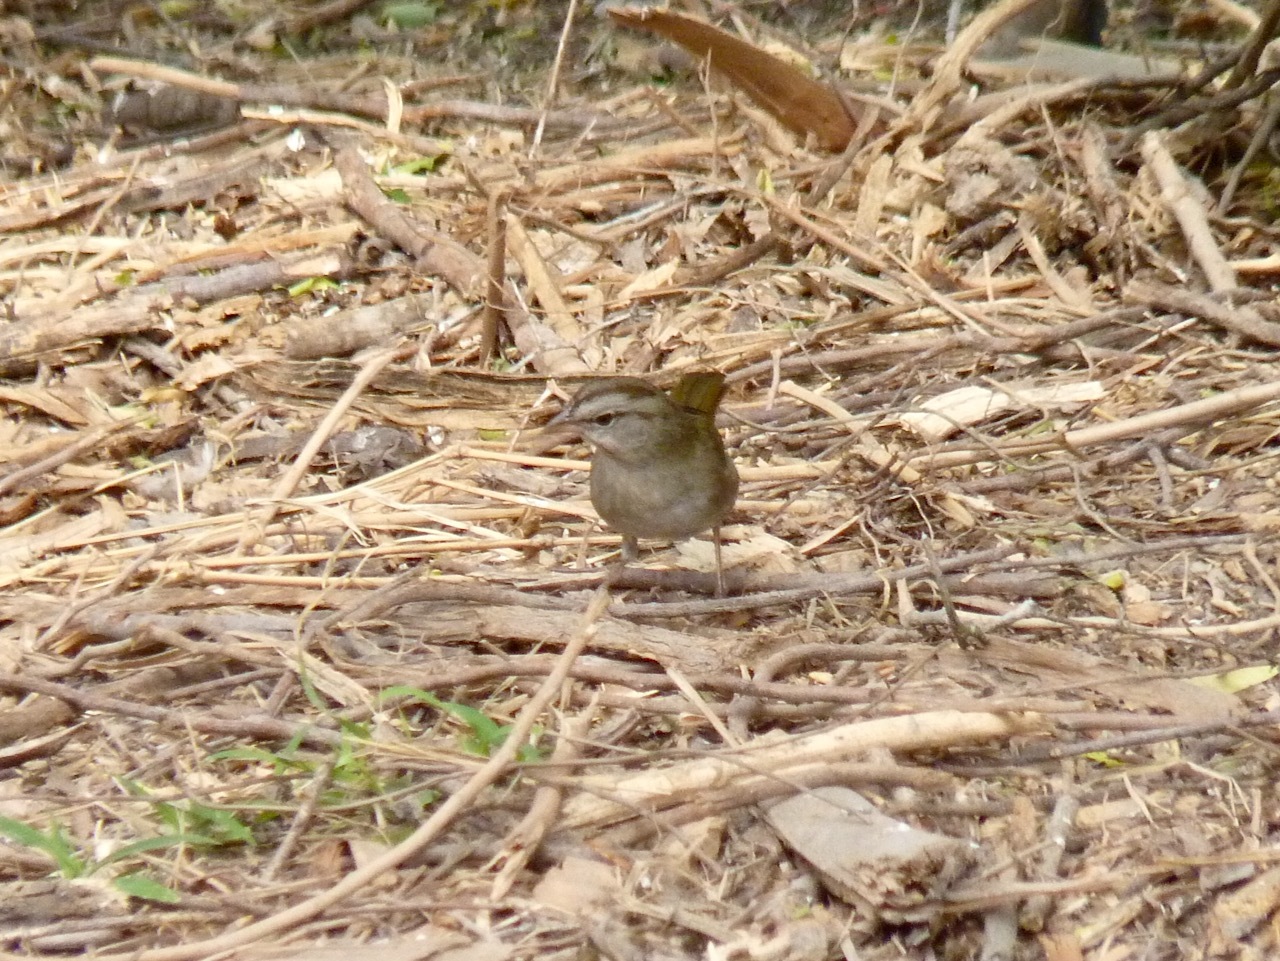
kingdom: Animalia
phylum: Chordata
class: Aves
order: Passeriformes
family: Passerellidae
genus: Arremonops
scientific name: Arremonops rufivirgatus
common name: Olive sparrow
